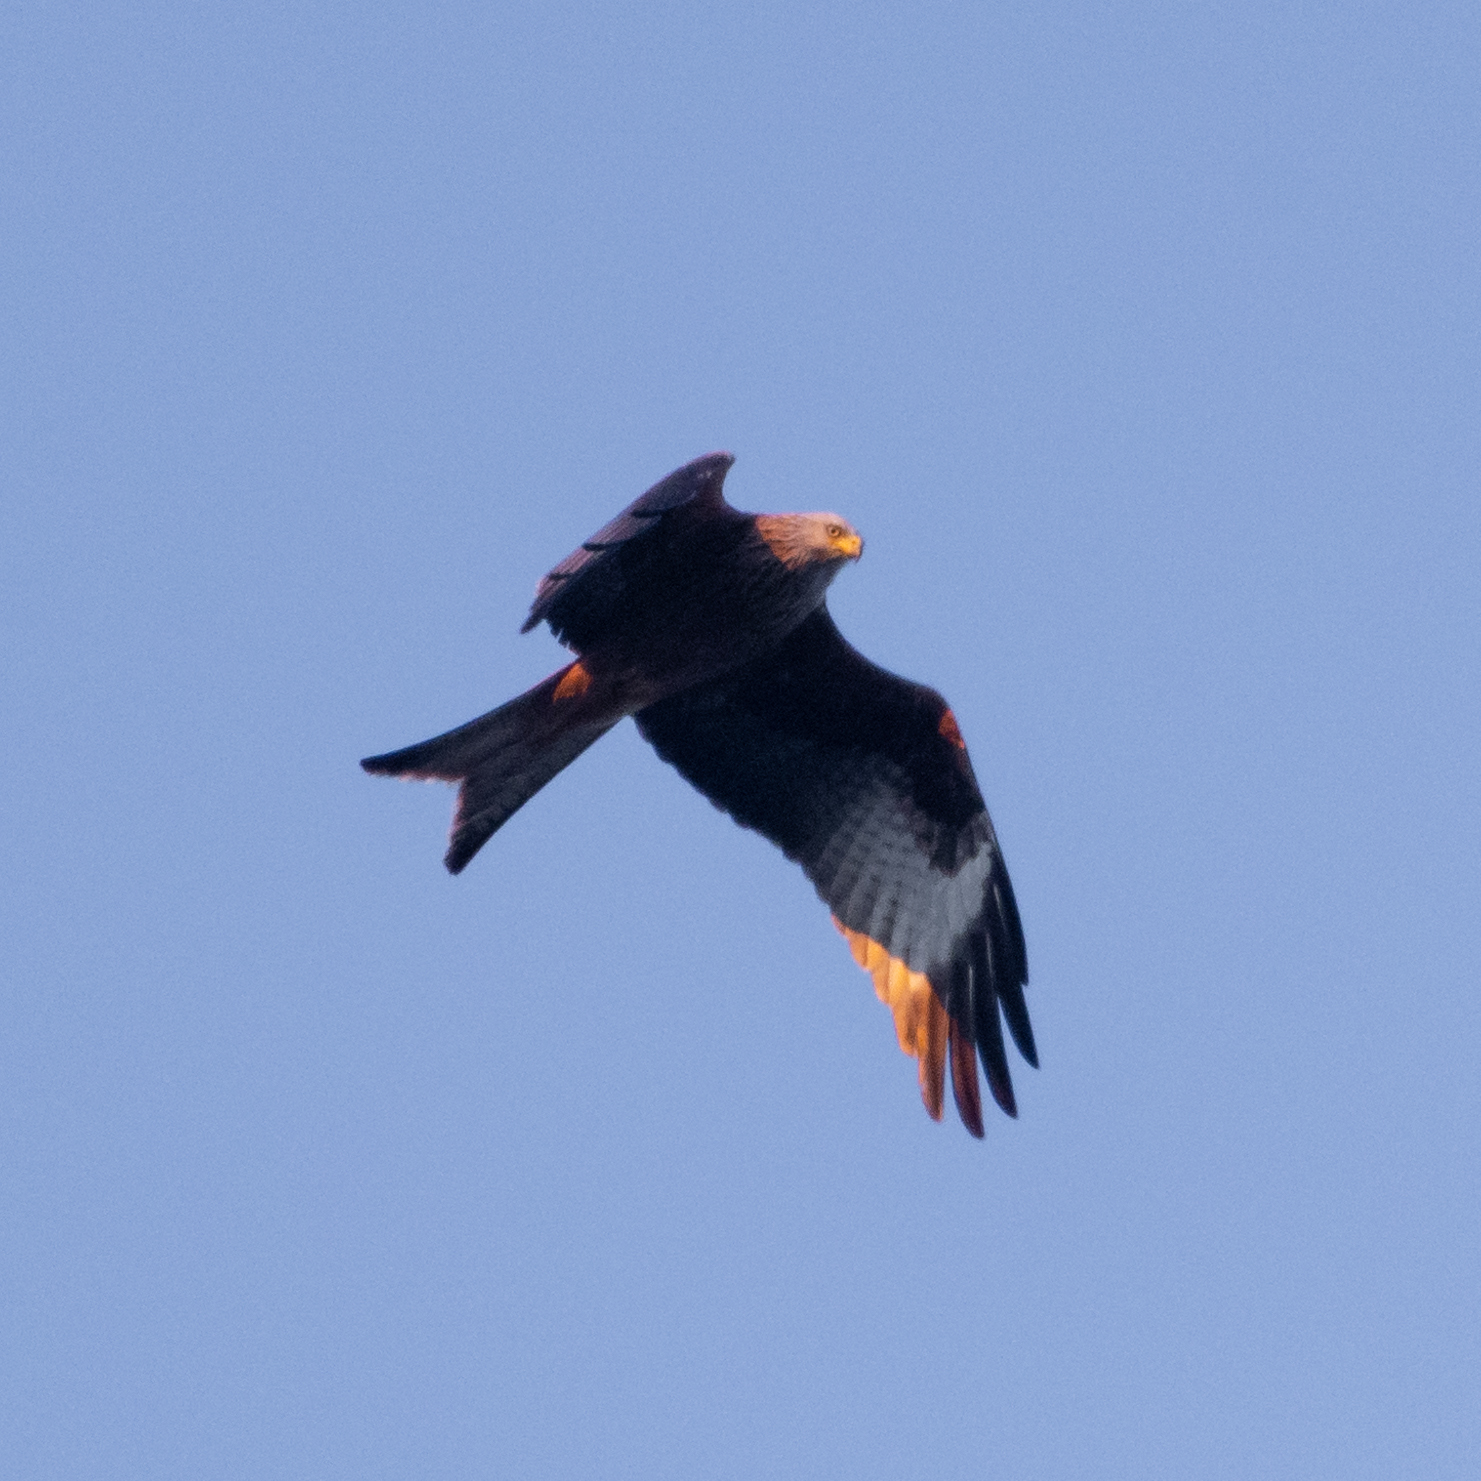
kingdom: Animalia
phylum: Chordata
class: Aves
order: Accipitriformes
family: Accipitridae
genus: Milvus
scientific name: Milvus milvus
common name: Red kite
